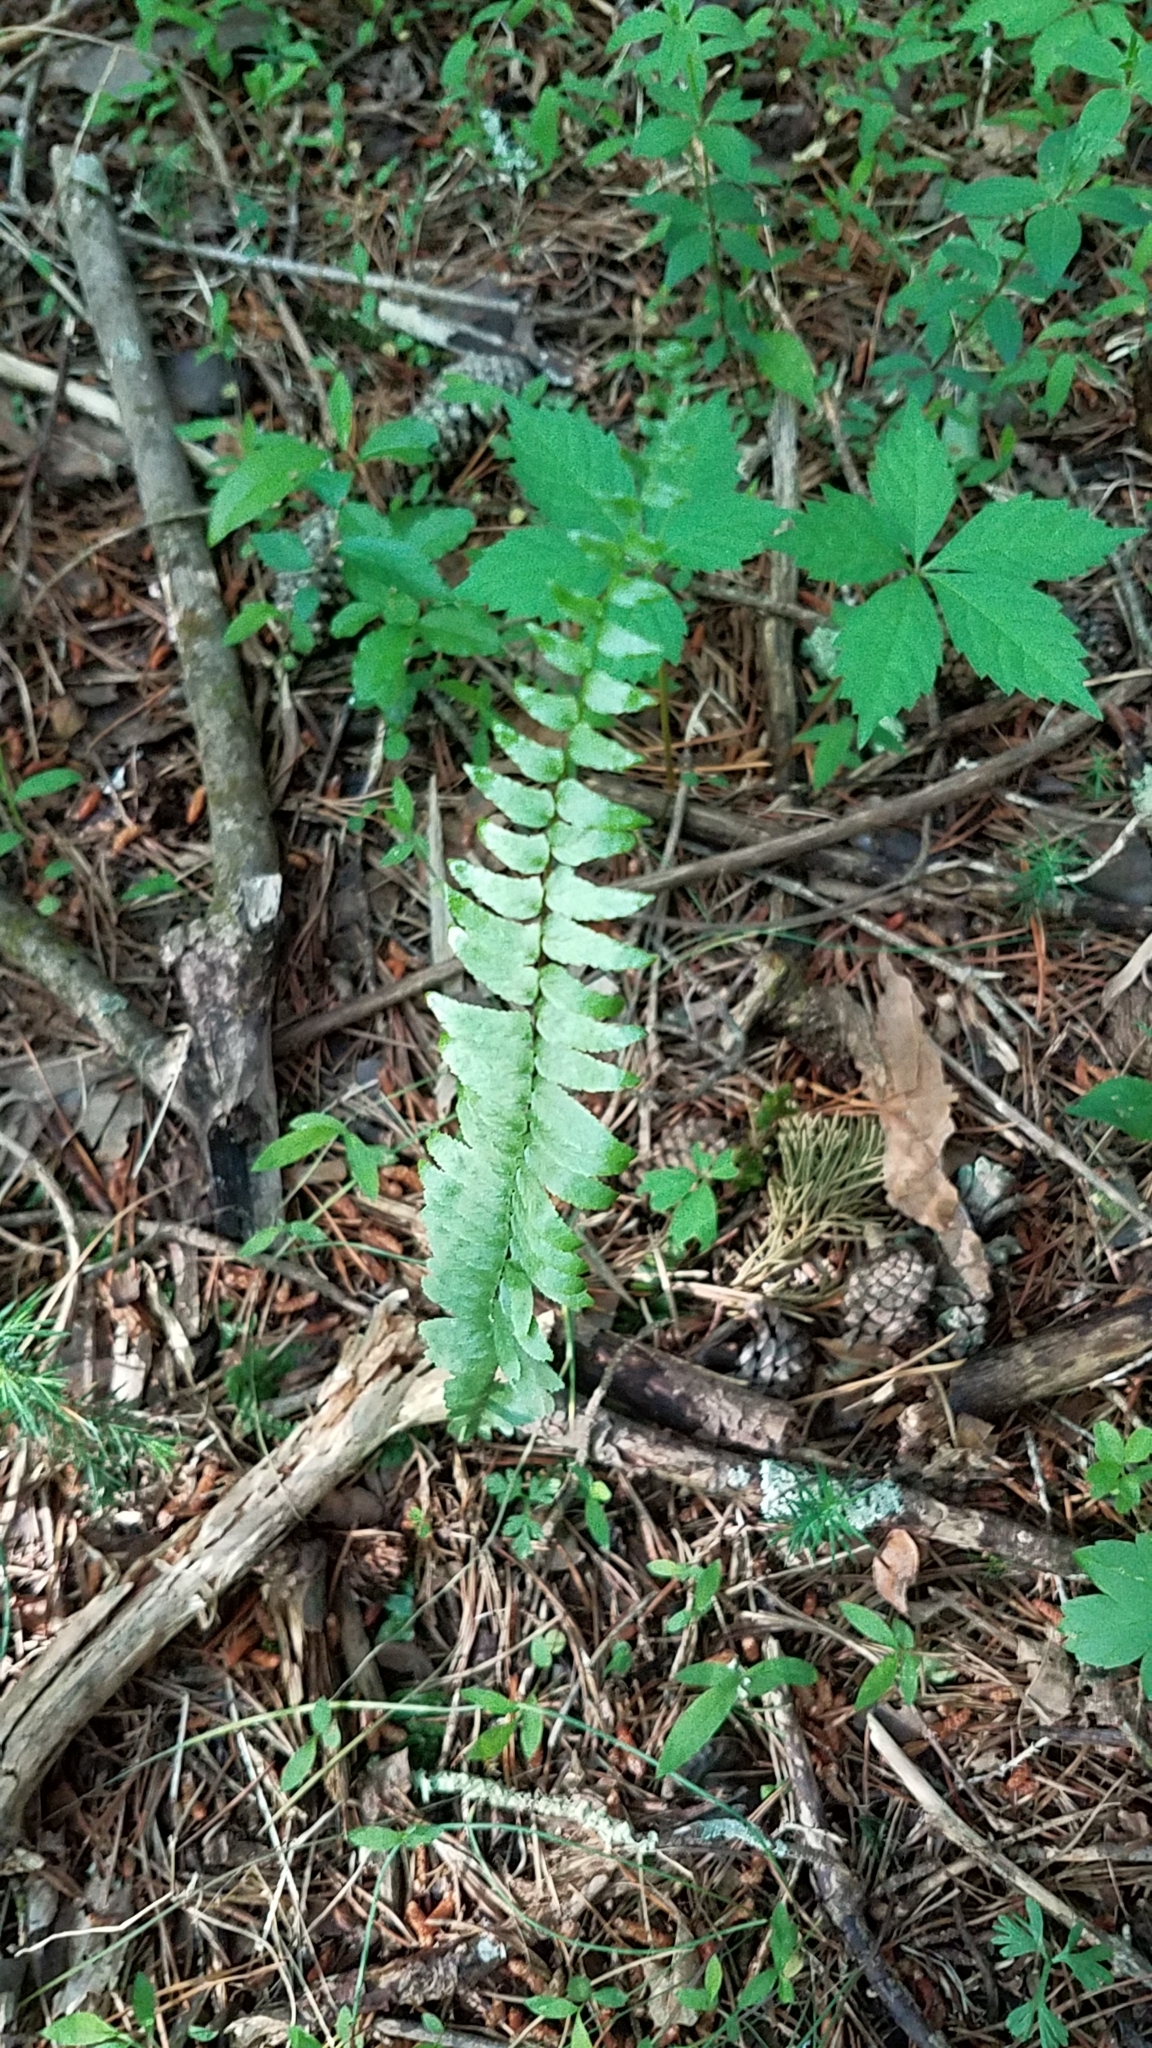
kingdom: Plantae
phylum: Tracheophyta
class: Polypodiopsida
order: Polypodiales
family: Aspleniaceae
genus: Asplenium
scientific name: Asplenium platyneuron
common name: Ebony spleenwort
